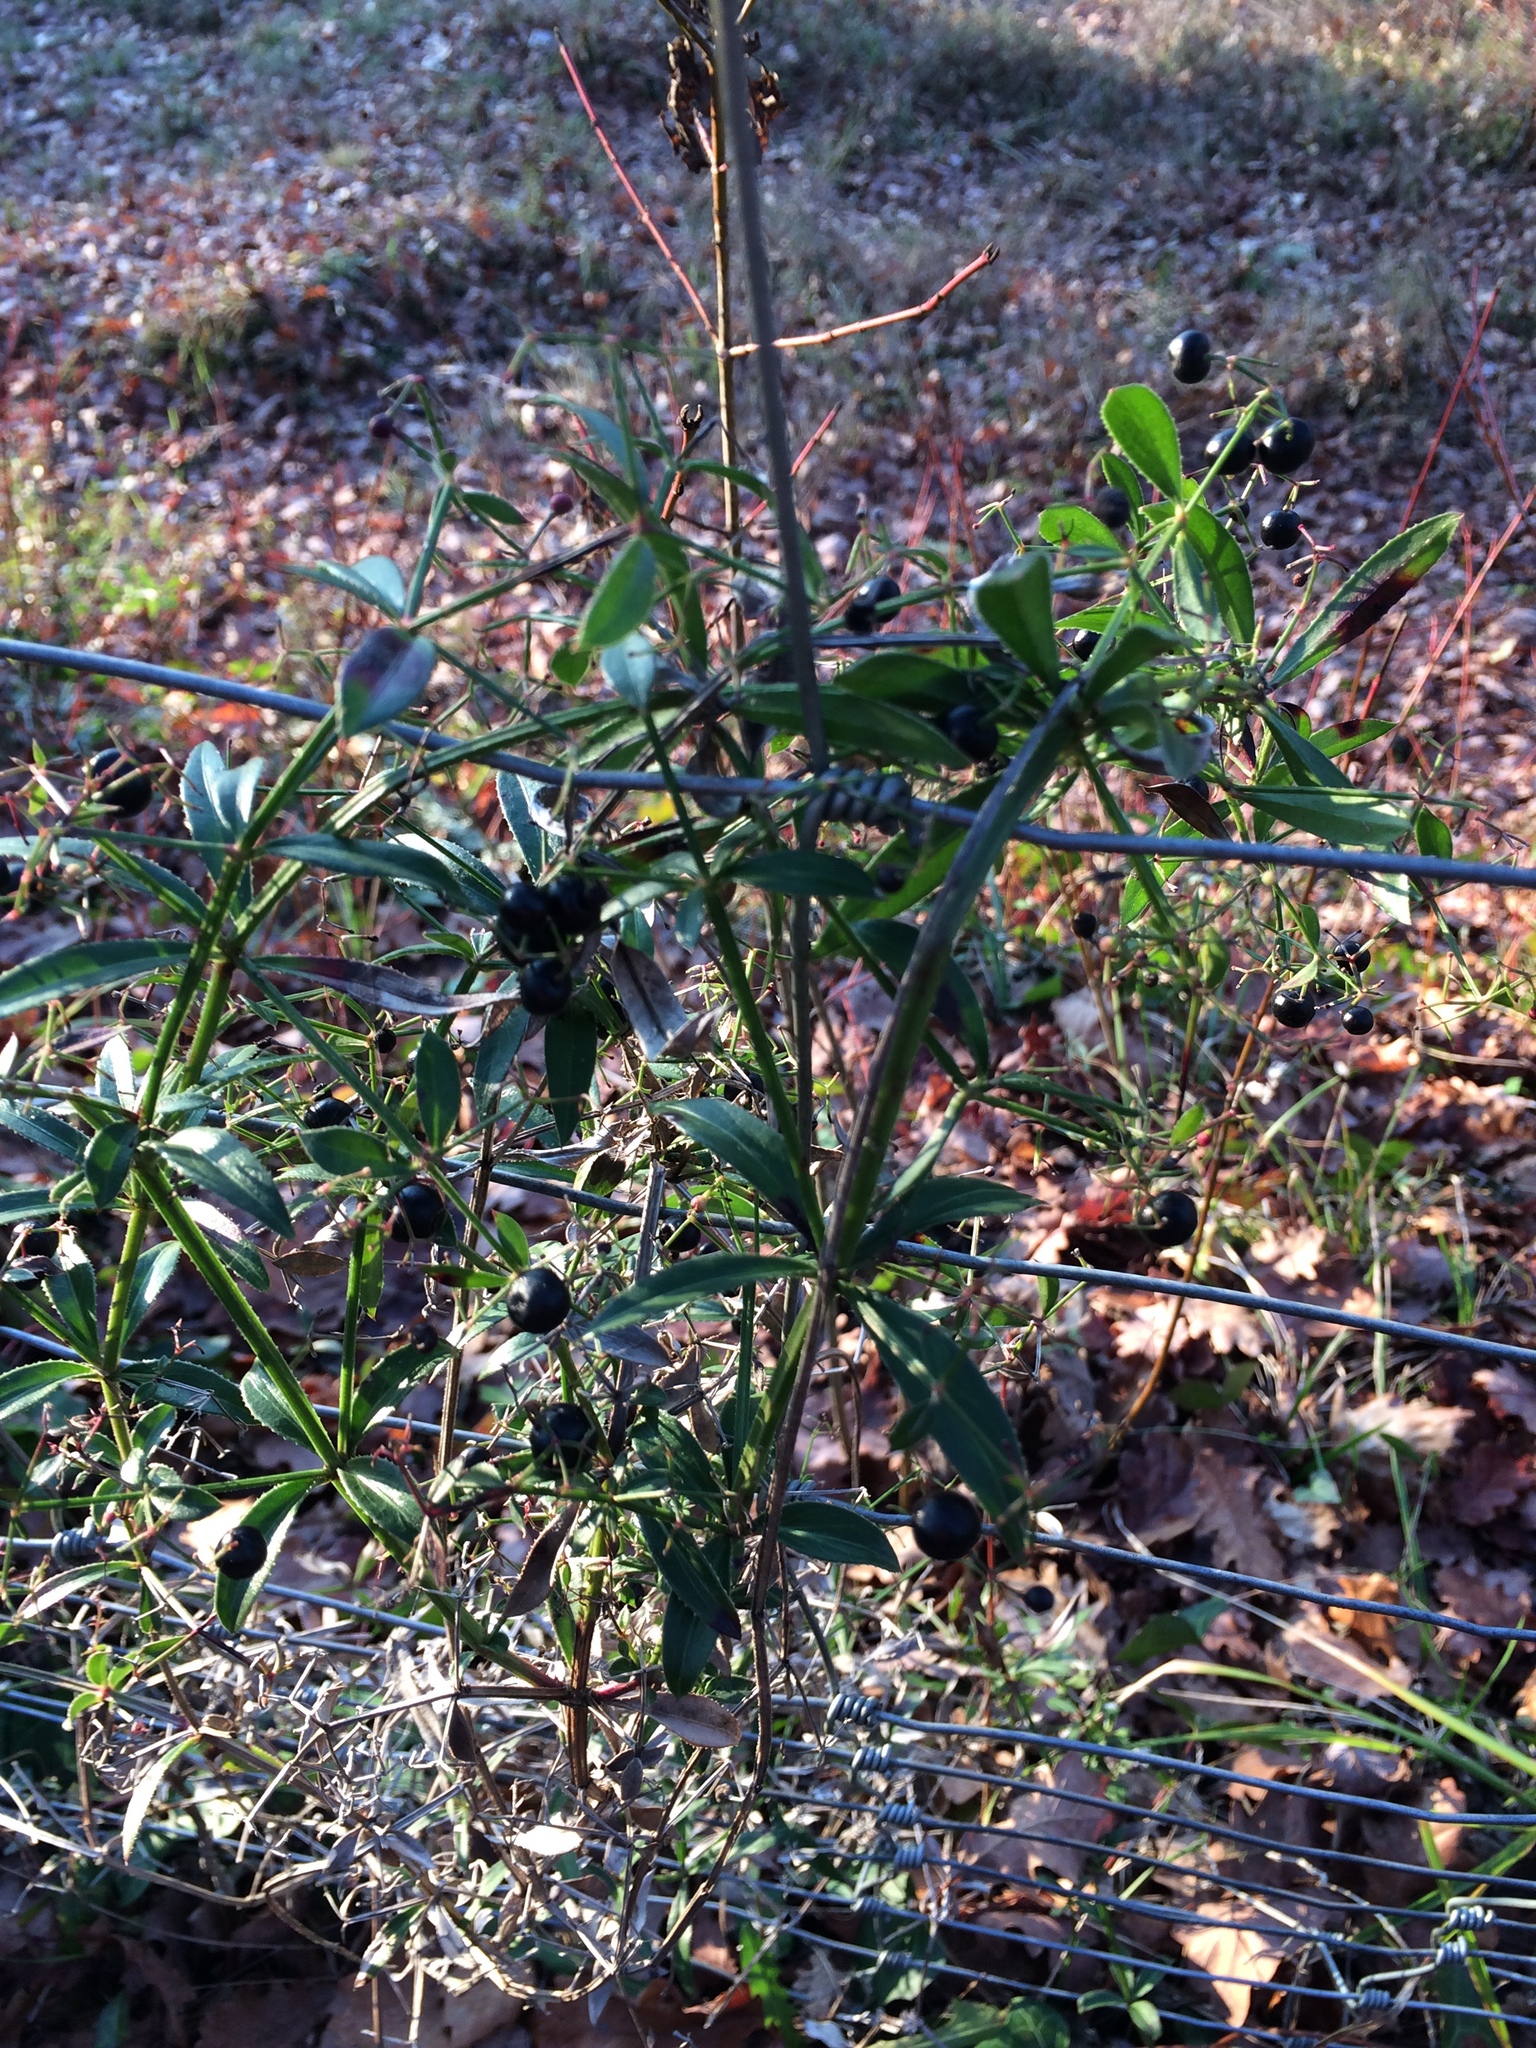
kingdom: Plantae
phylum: Tracheophyta
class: Magnoliopsida
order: Gentianales
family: Rubiaceae
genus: Rubia
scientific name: Rubia peregrina
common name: Wild madder
